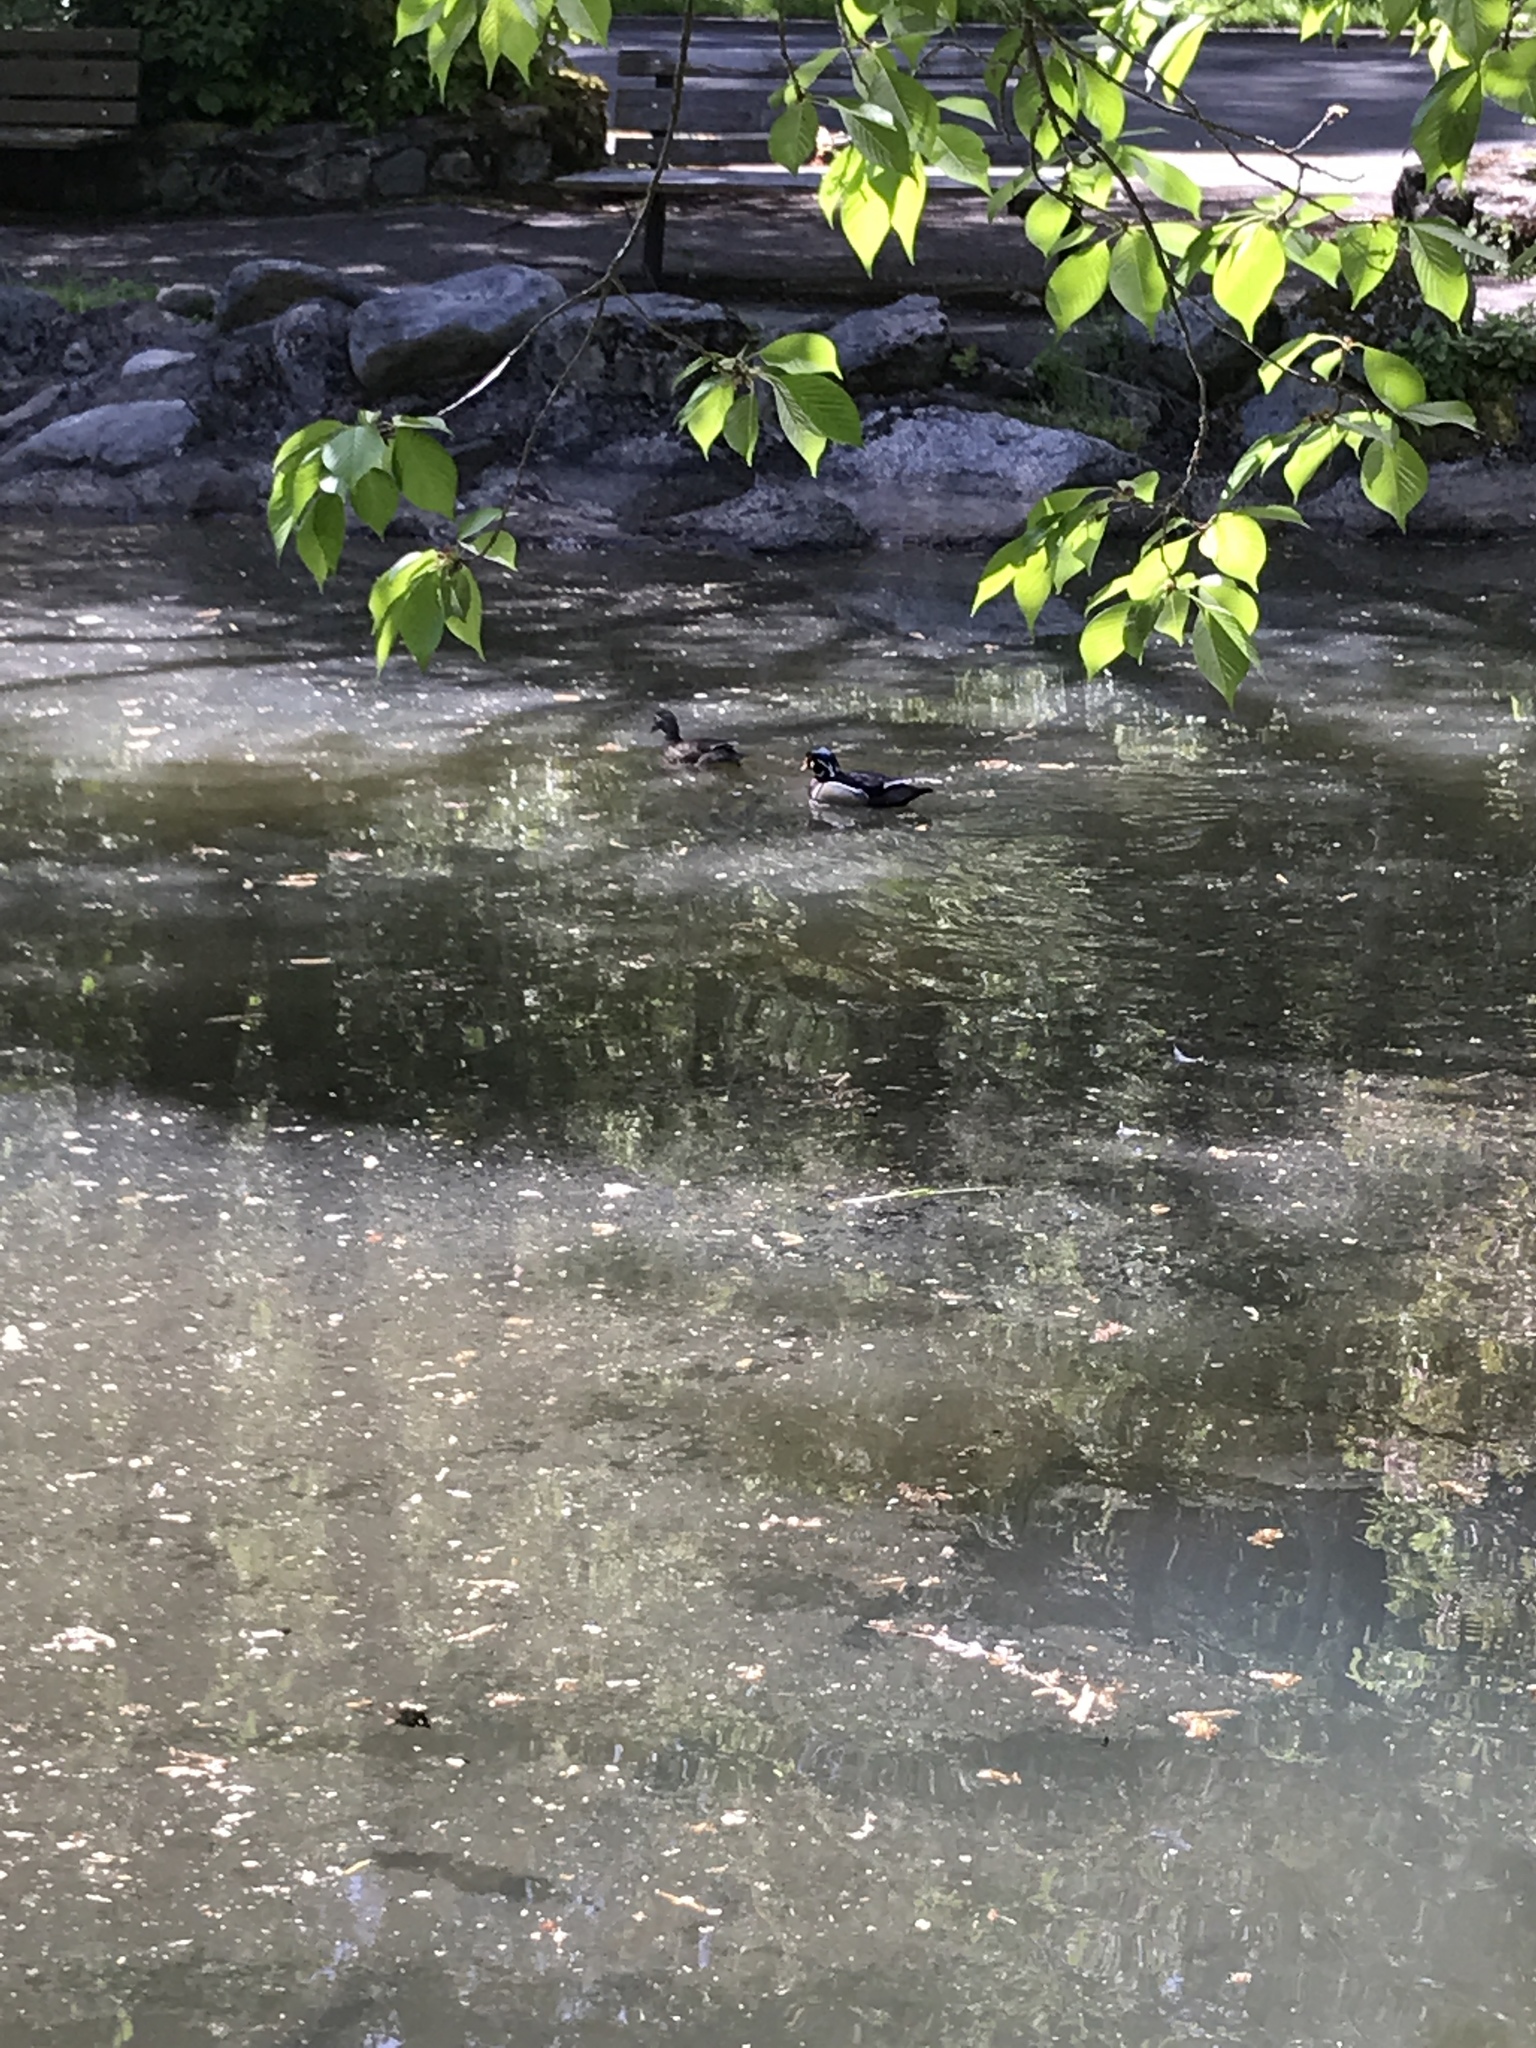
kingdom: Animalia
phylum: Chordata
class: Aves
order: Anseriformes
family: Anatidae
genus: Aix
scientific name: Aix sponsa
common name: Wood duck
